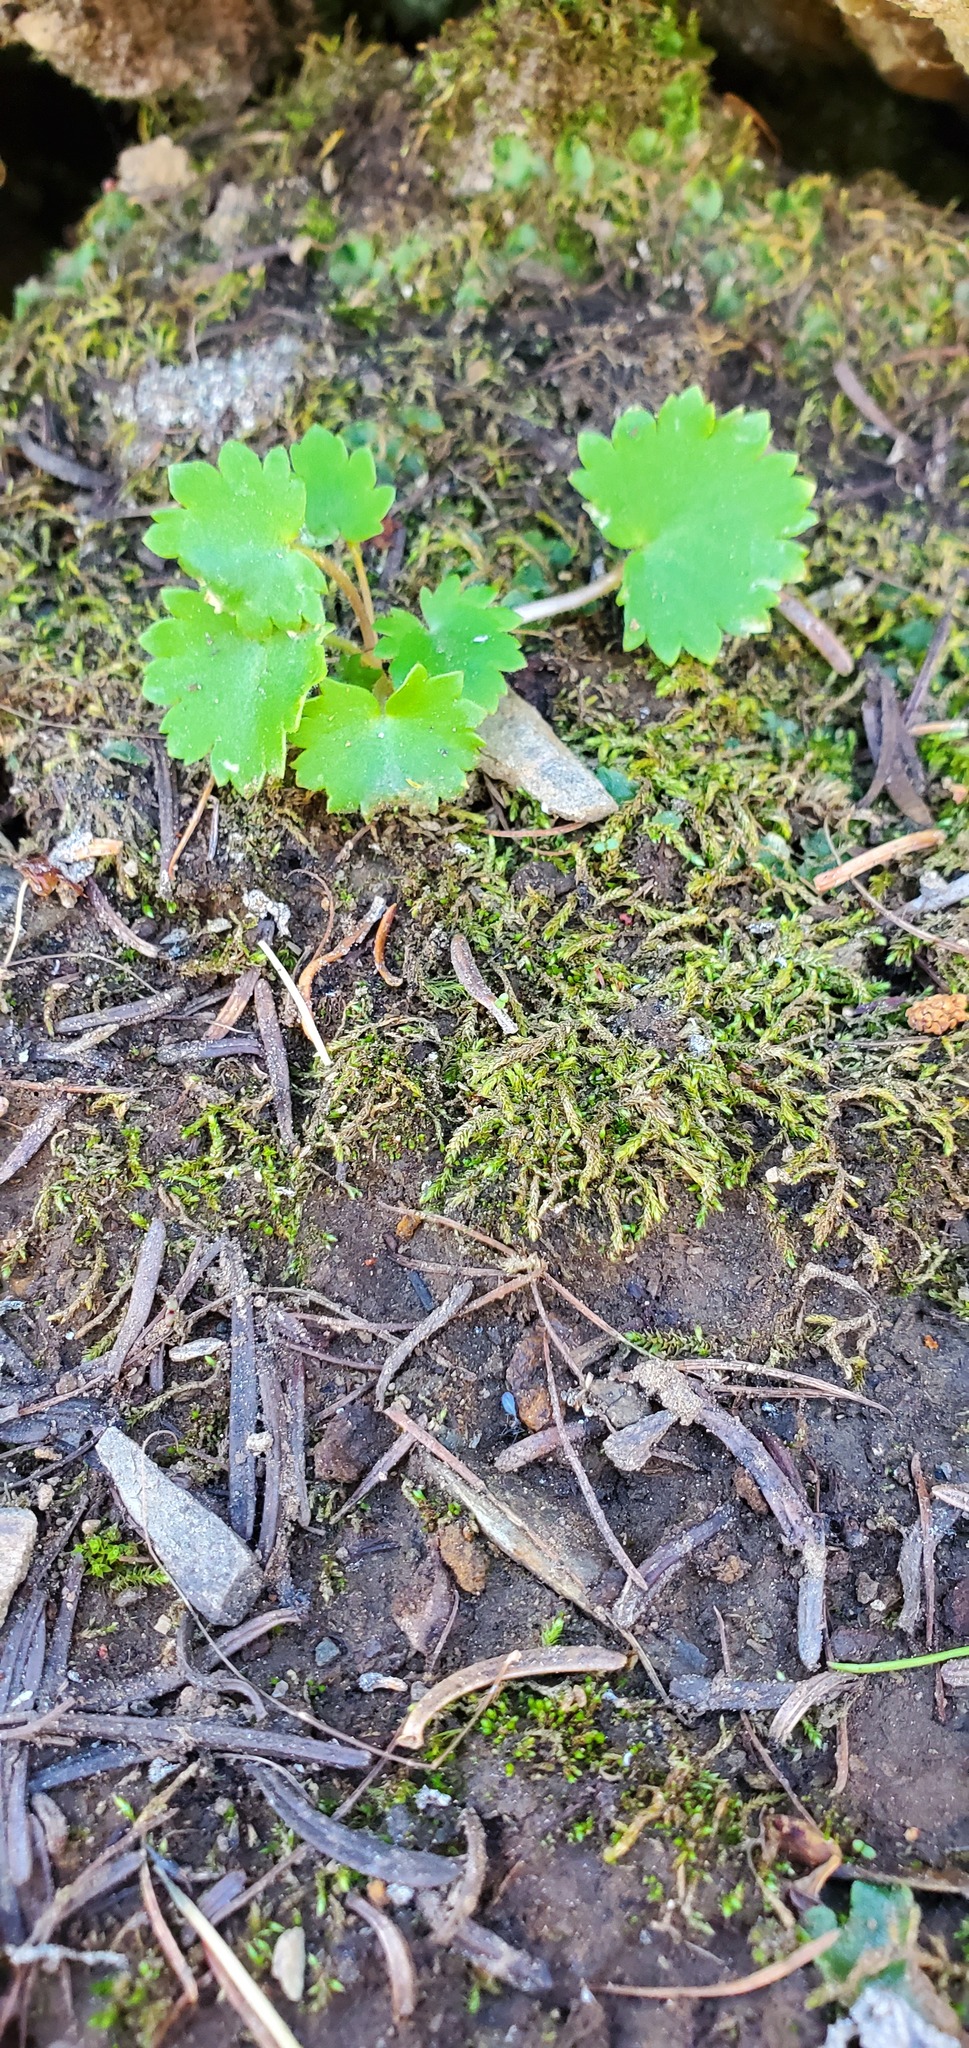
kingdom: Plantae
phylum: Tracheophyta
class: Magnoliopsida
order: Saxifragales
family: Saxifragaceae
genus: Micranthes
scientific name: Micranthes mertensiana
